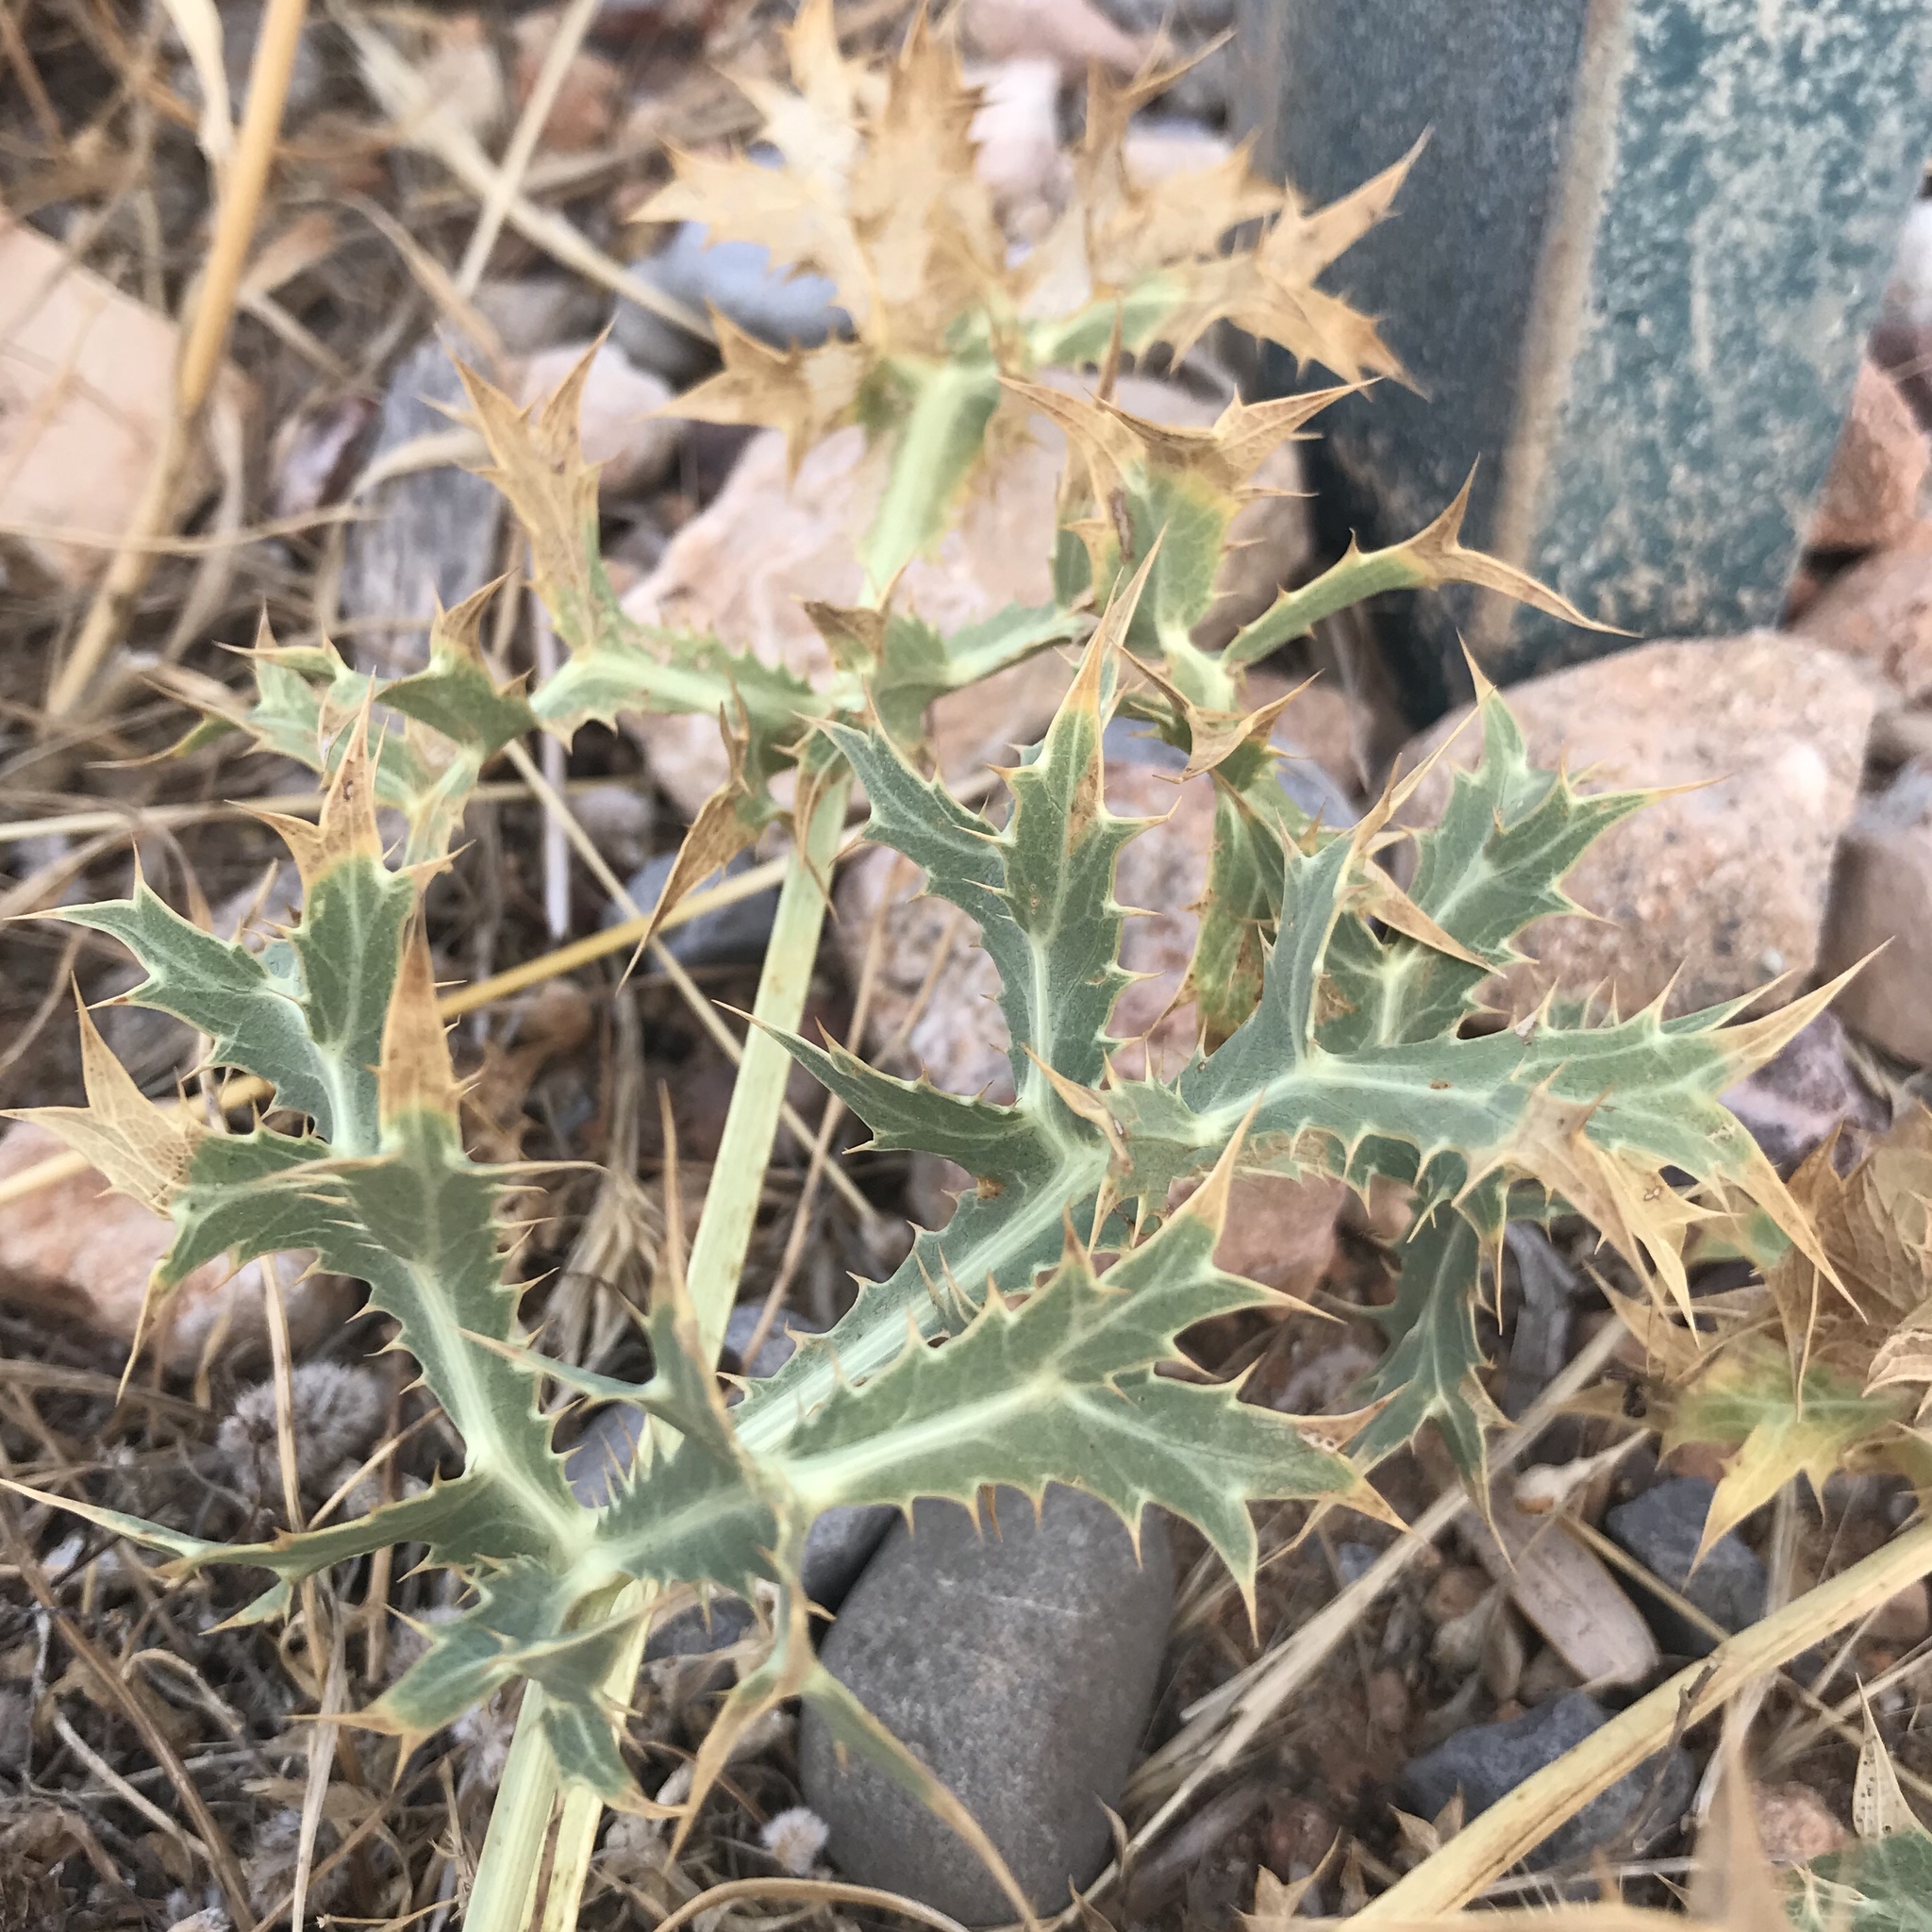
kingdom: Plantae
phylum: Tracheophyta
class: Magnoliopsida
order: Apiales
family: Apiaceae
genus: Eryngium
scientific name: Eryngium campestre
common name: Field eryngo
